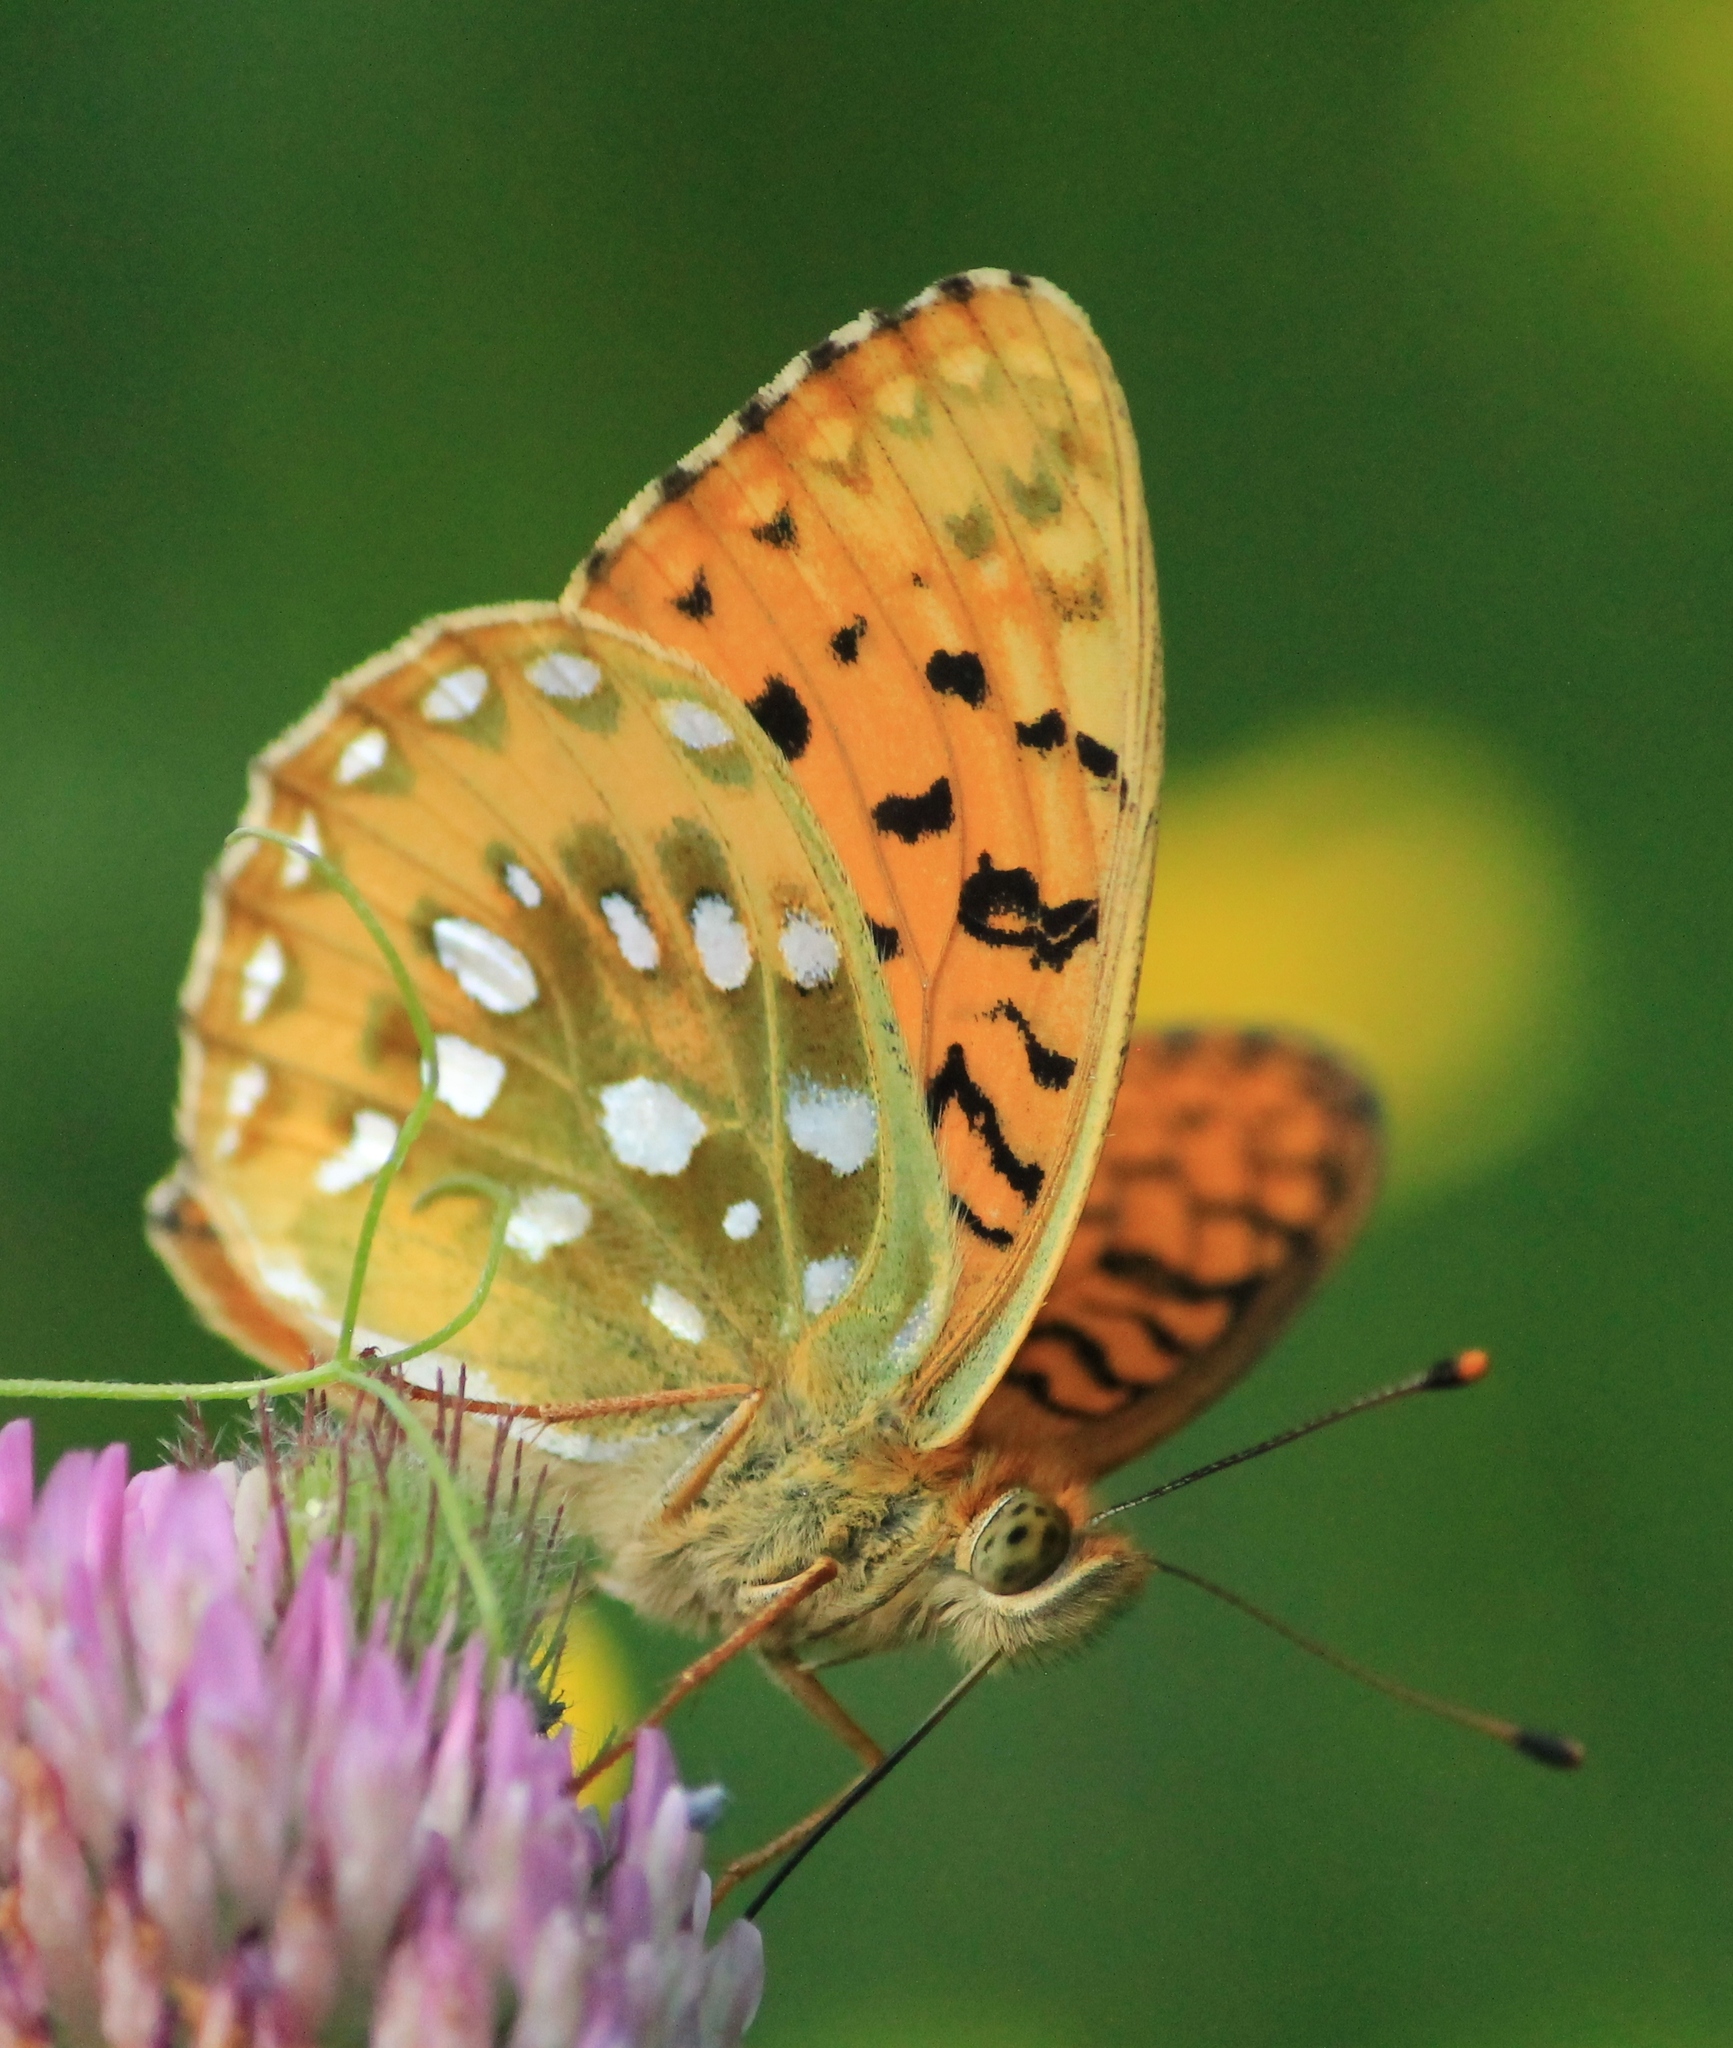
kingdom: Animalia
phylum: Arthropoda
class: Insecta
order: Lepidoptera
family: Nymphalidae
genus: Speyeria
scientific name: Speyeria aglaja
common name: Dark green fritillary
